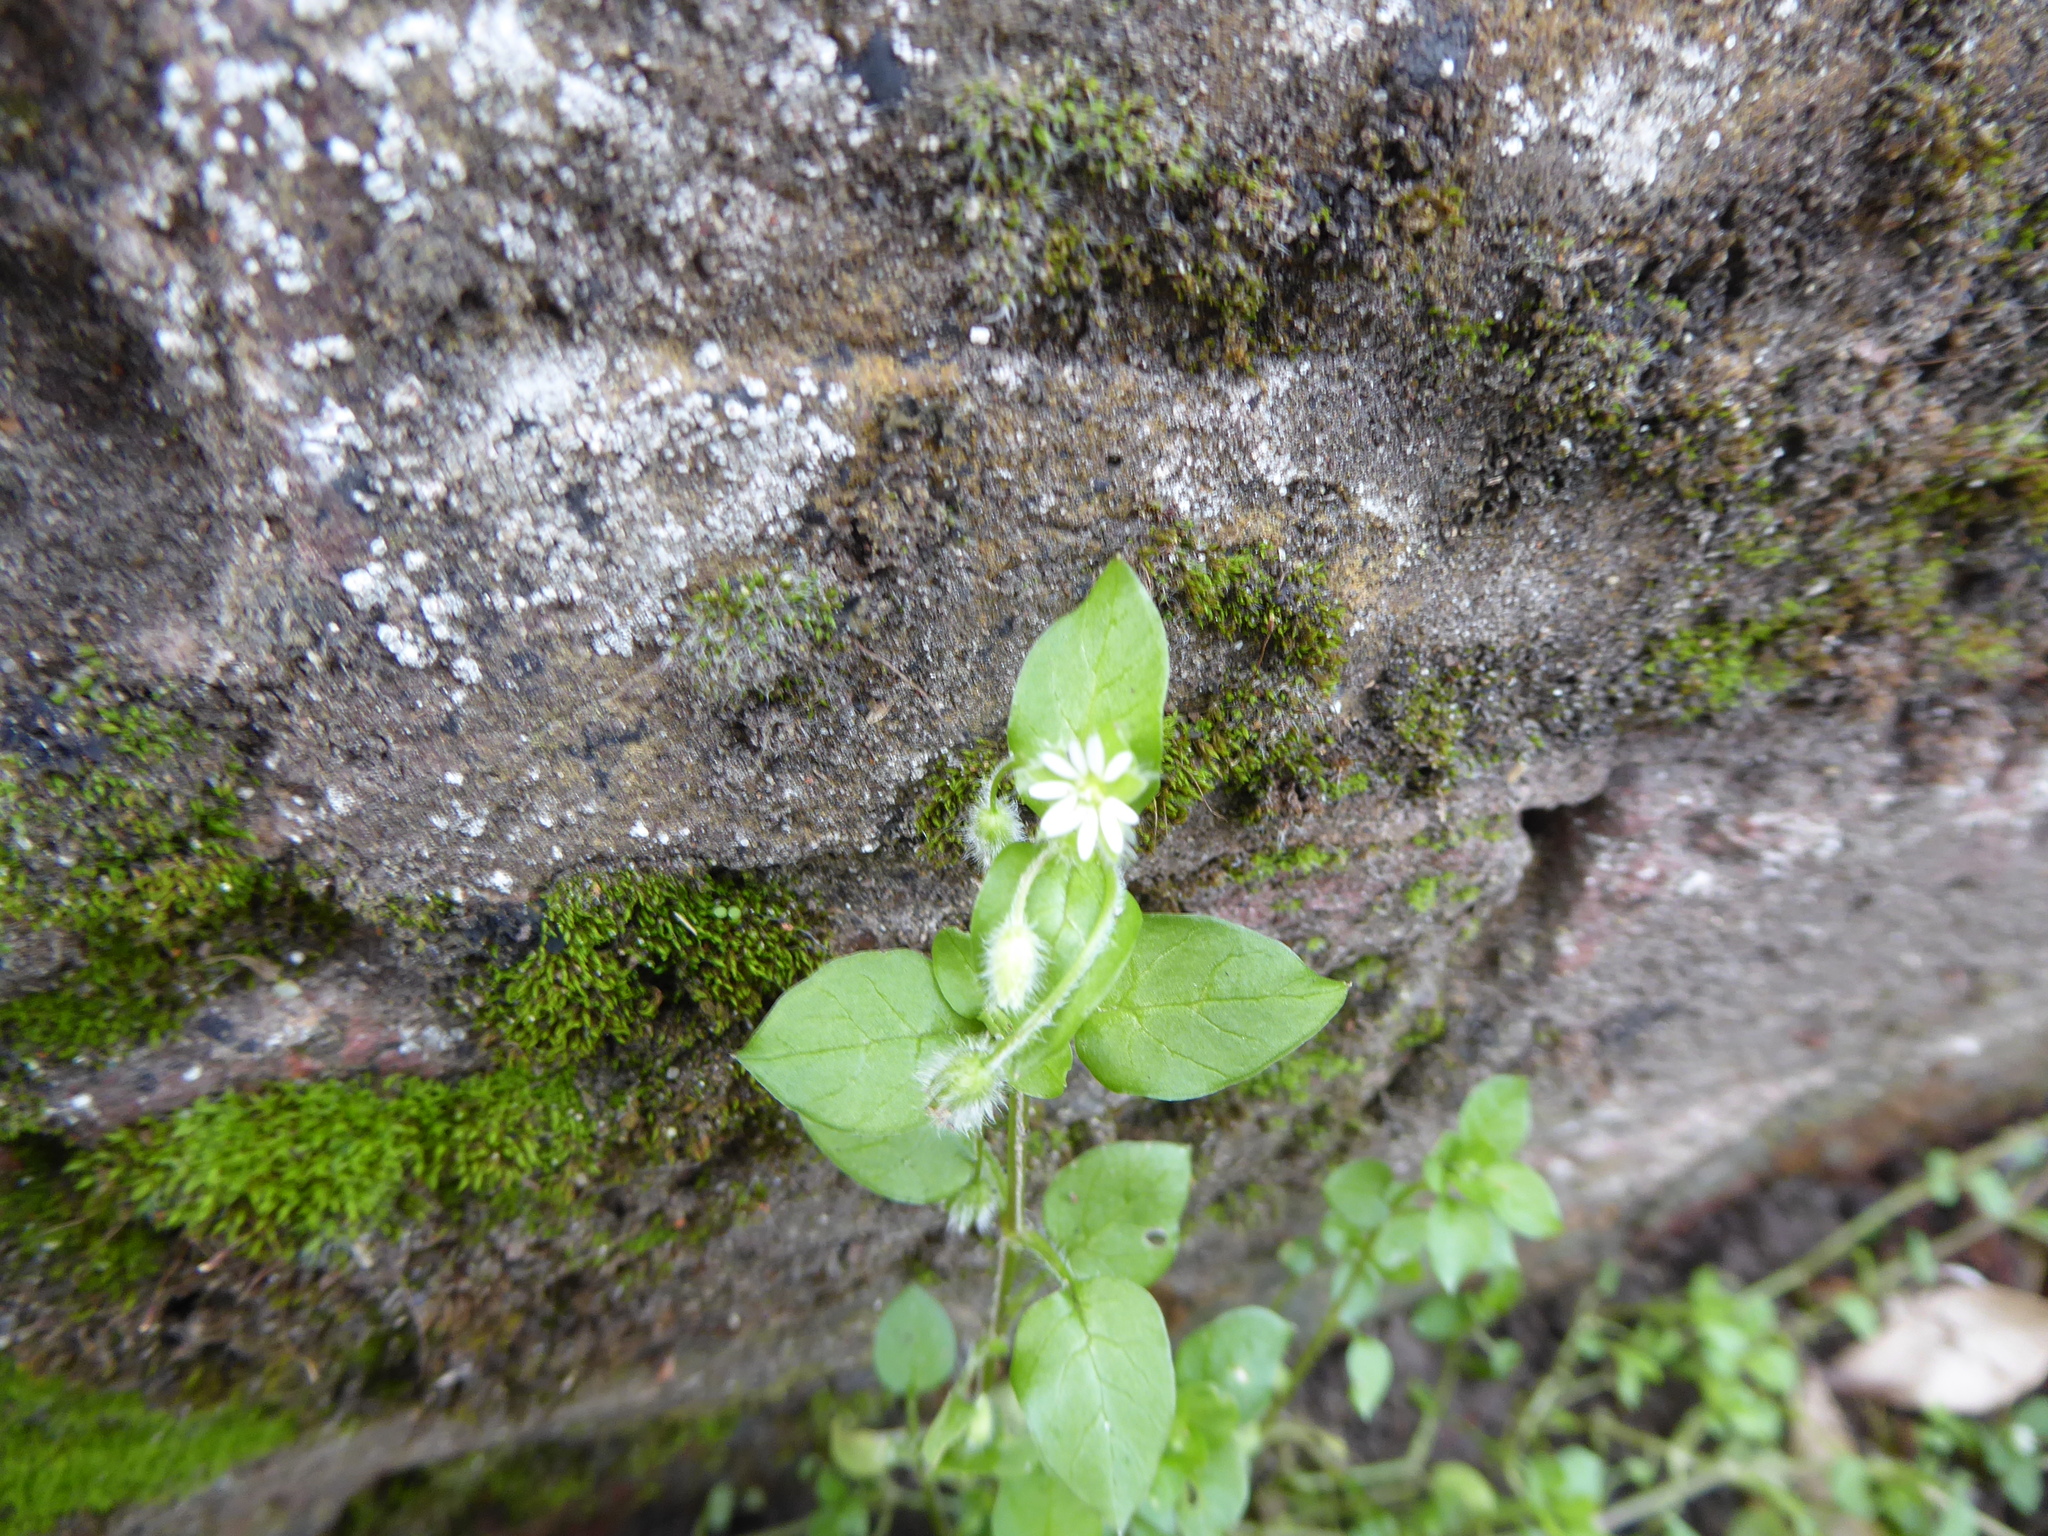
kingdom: Plantae
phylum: Tracheophyta
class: Magnoliopsida
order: Caryophyllales
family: Caryophyllaceae
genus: Stellaria
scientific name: Stellaria media
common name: Common chickweed
